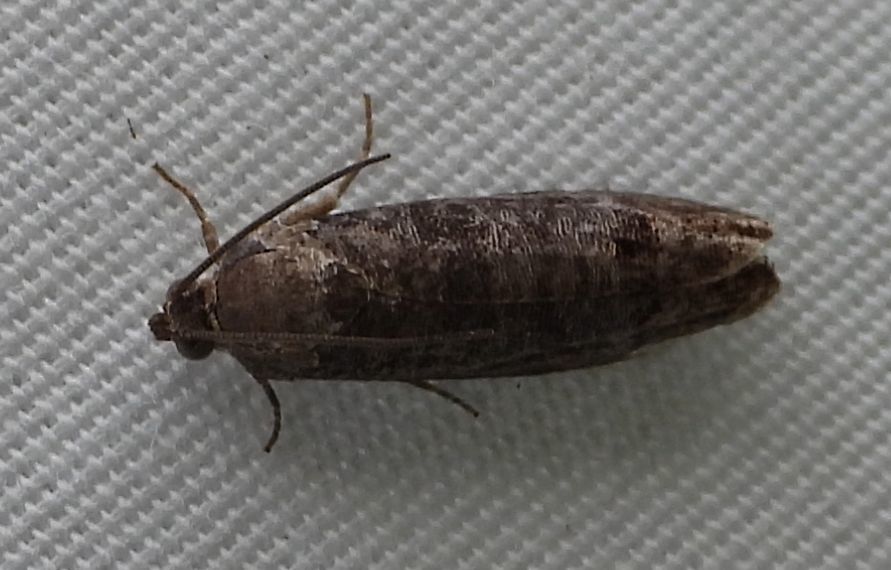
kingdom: Animalia
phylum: Arthropoda
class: Insecta
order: Lepidoptera
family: Tortricidae
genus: Cydia
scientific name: Cydia pomonella
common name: Codling moth
